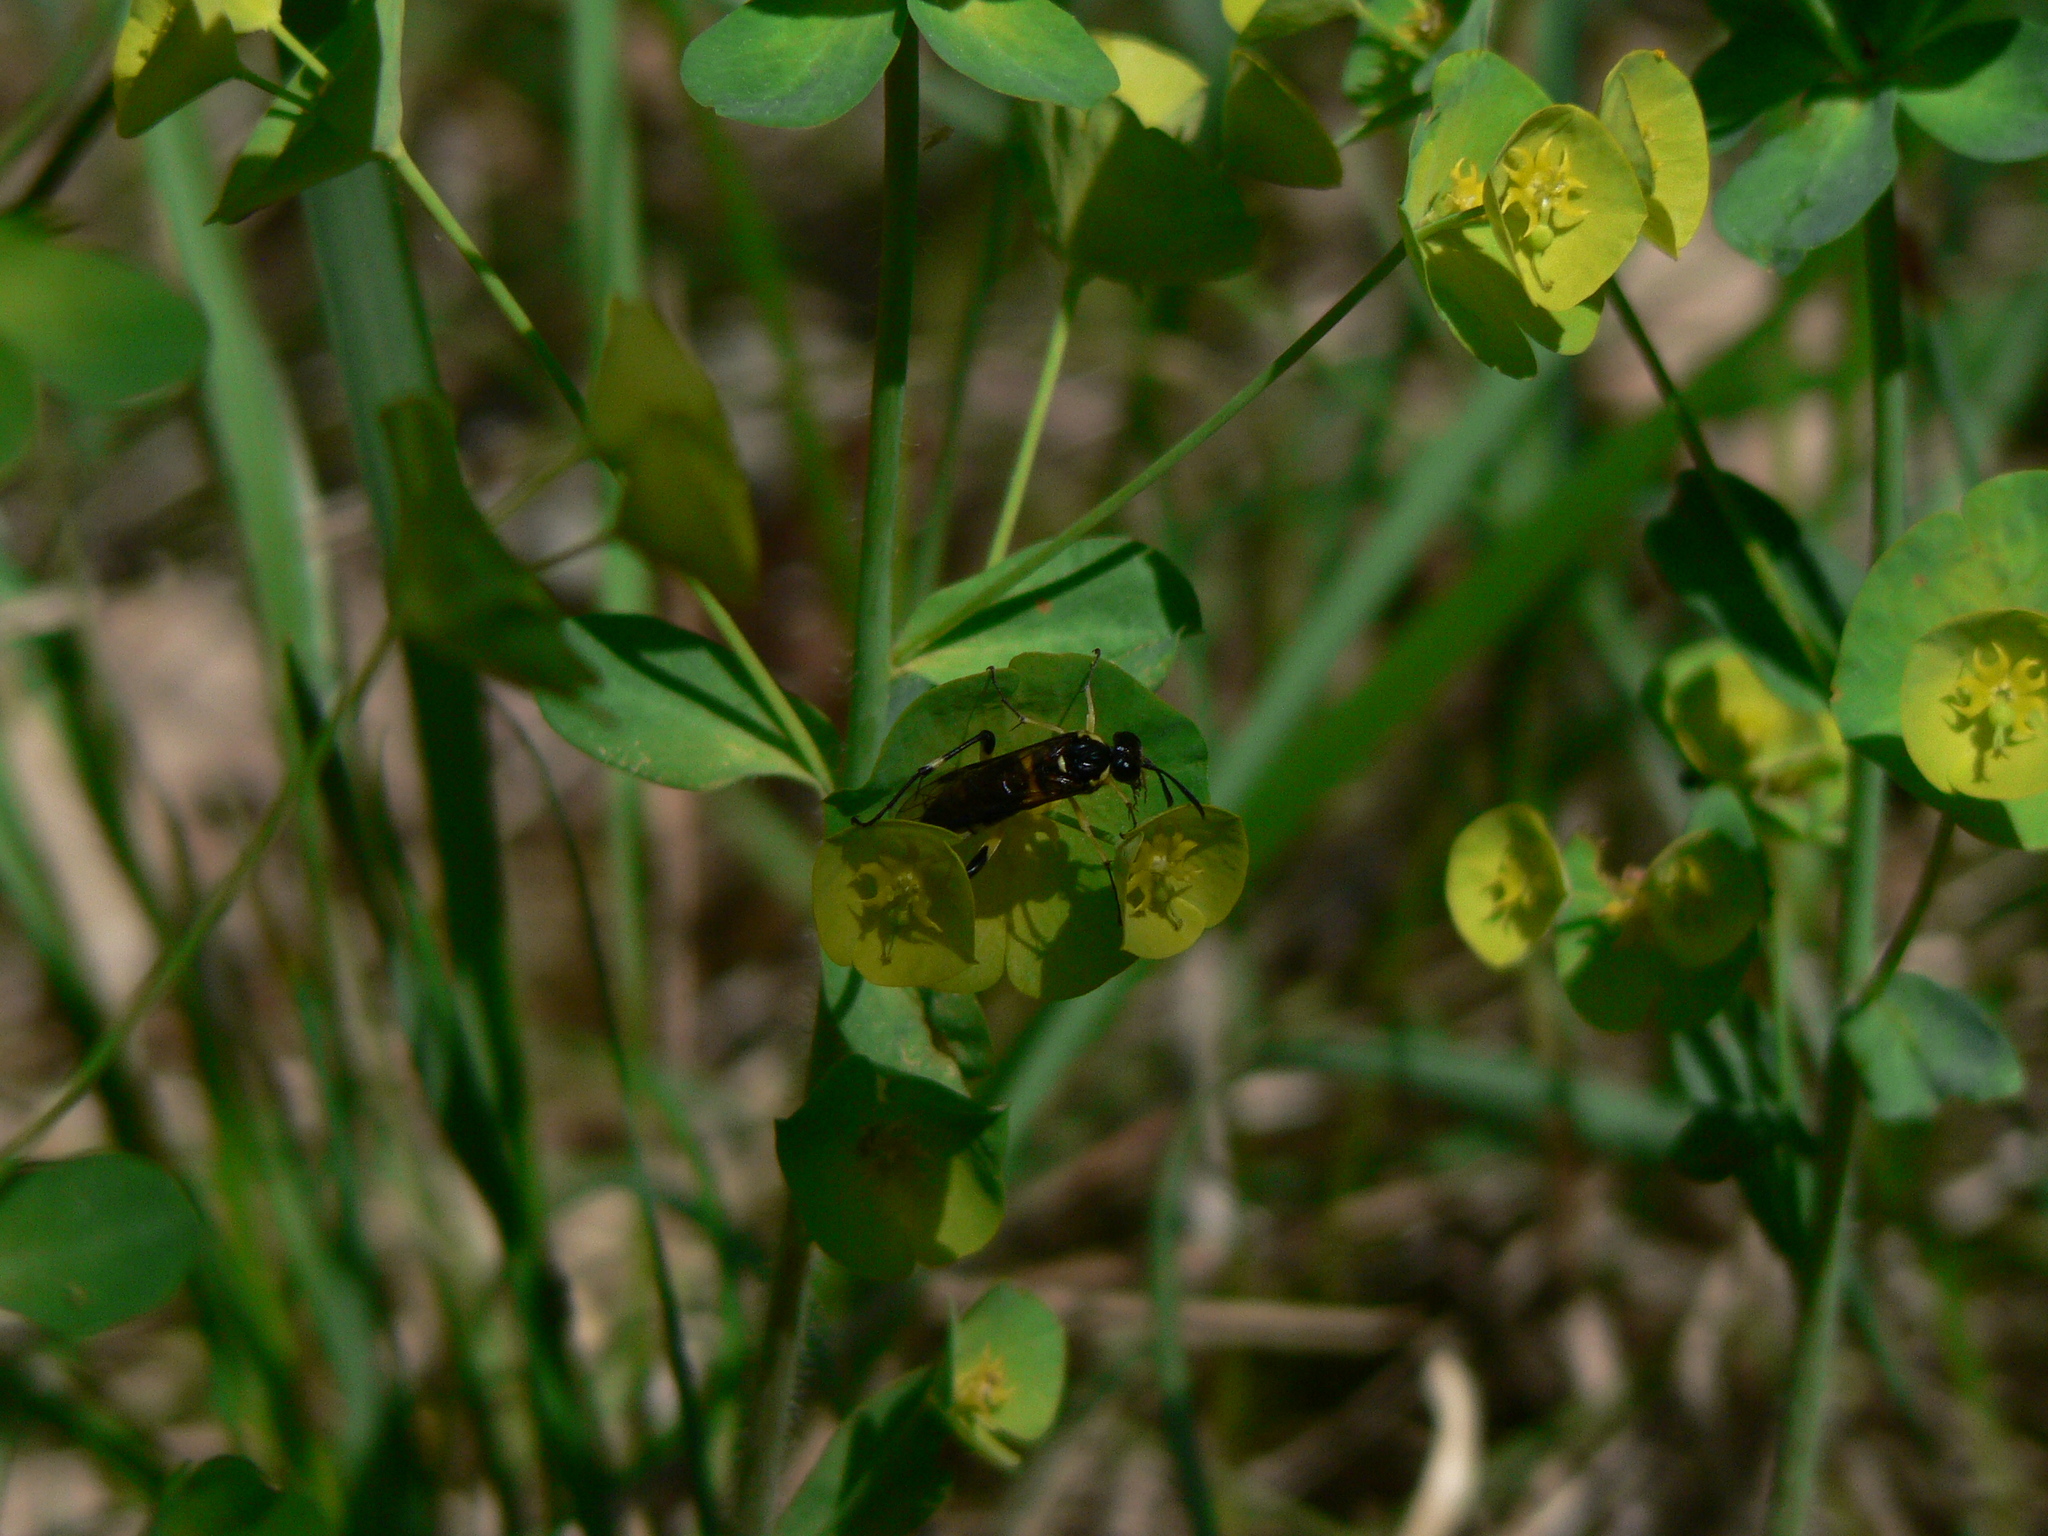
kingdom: Animalia
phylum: Arthropoda
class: Insecta
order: Hymenoptera
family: Tenthredinidae
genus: Macrophya
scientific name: Macrophya montana
